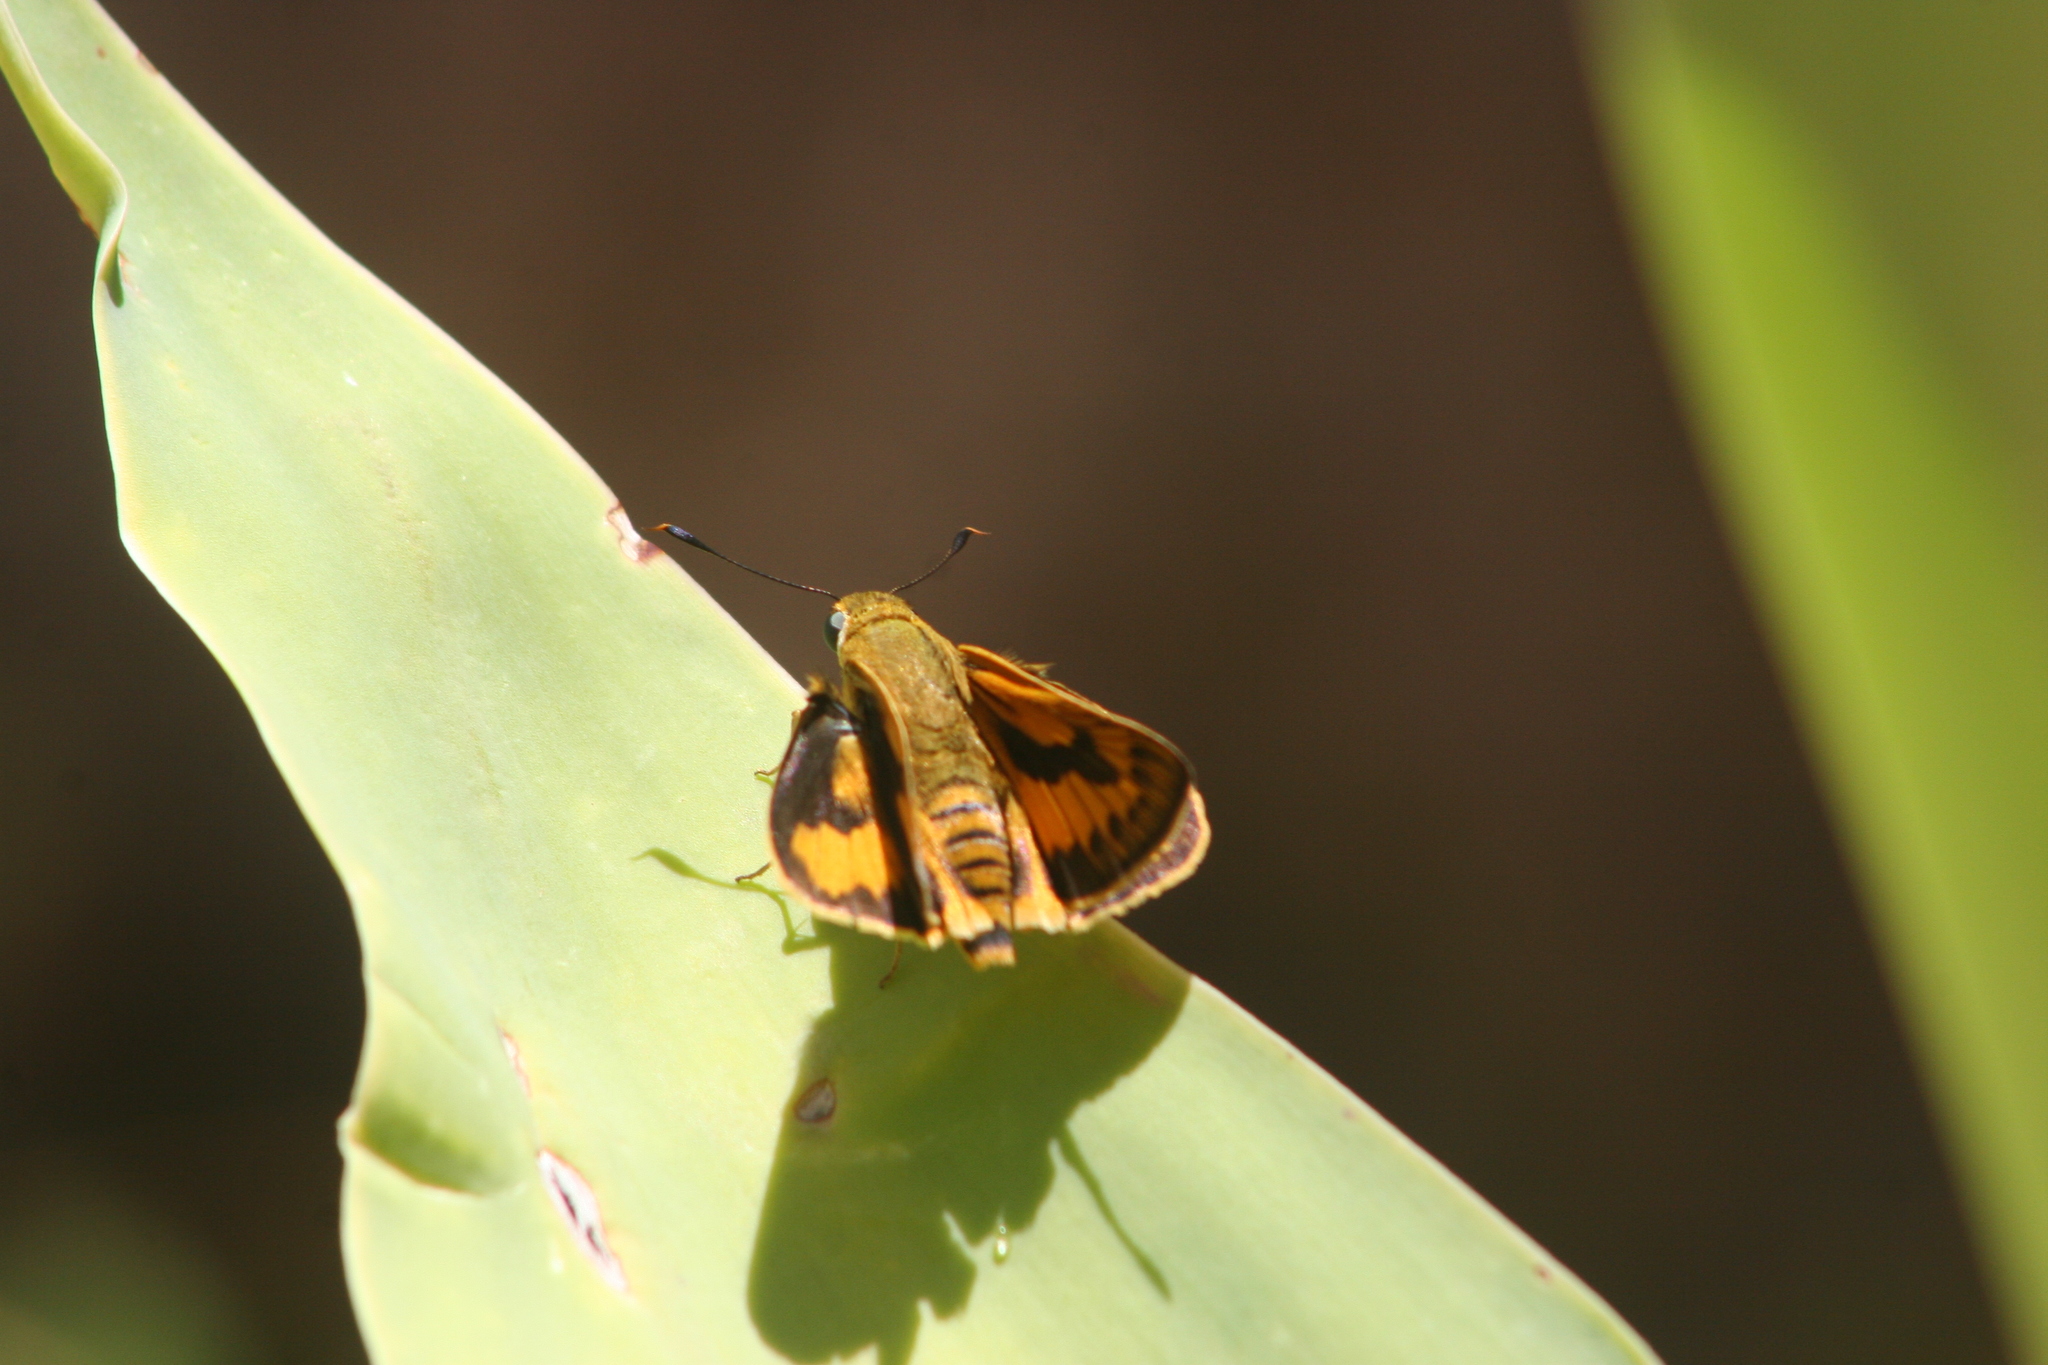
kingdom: Animalia
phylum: Arthropoda
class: Insecta
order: Lepidoptera
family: Hesperiidae
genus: Cephrenes
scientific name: Cephrenes trichopepla
